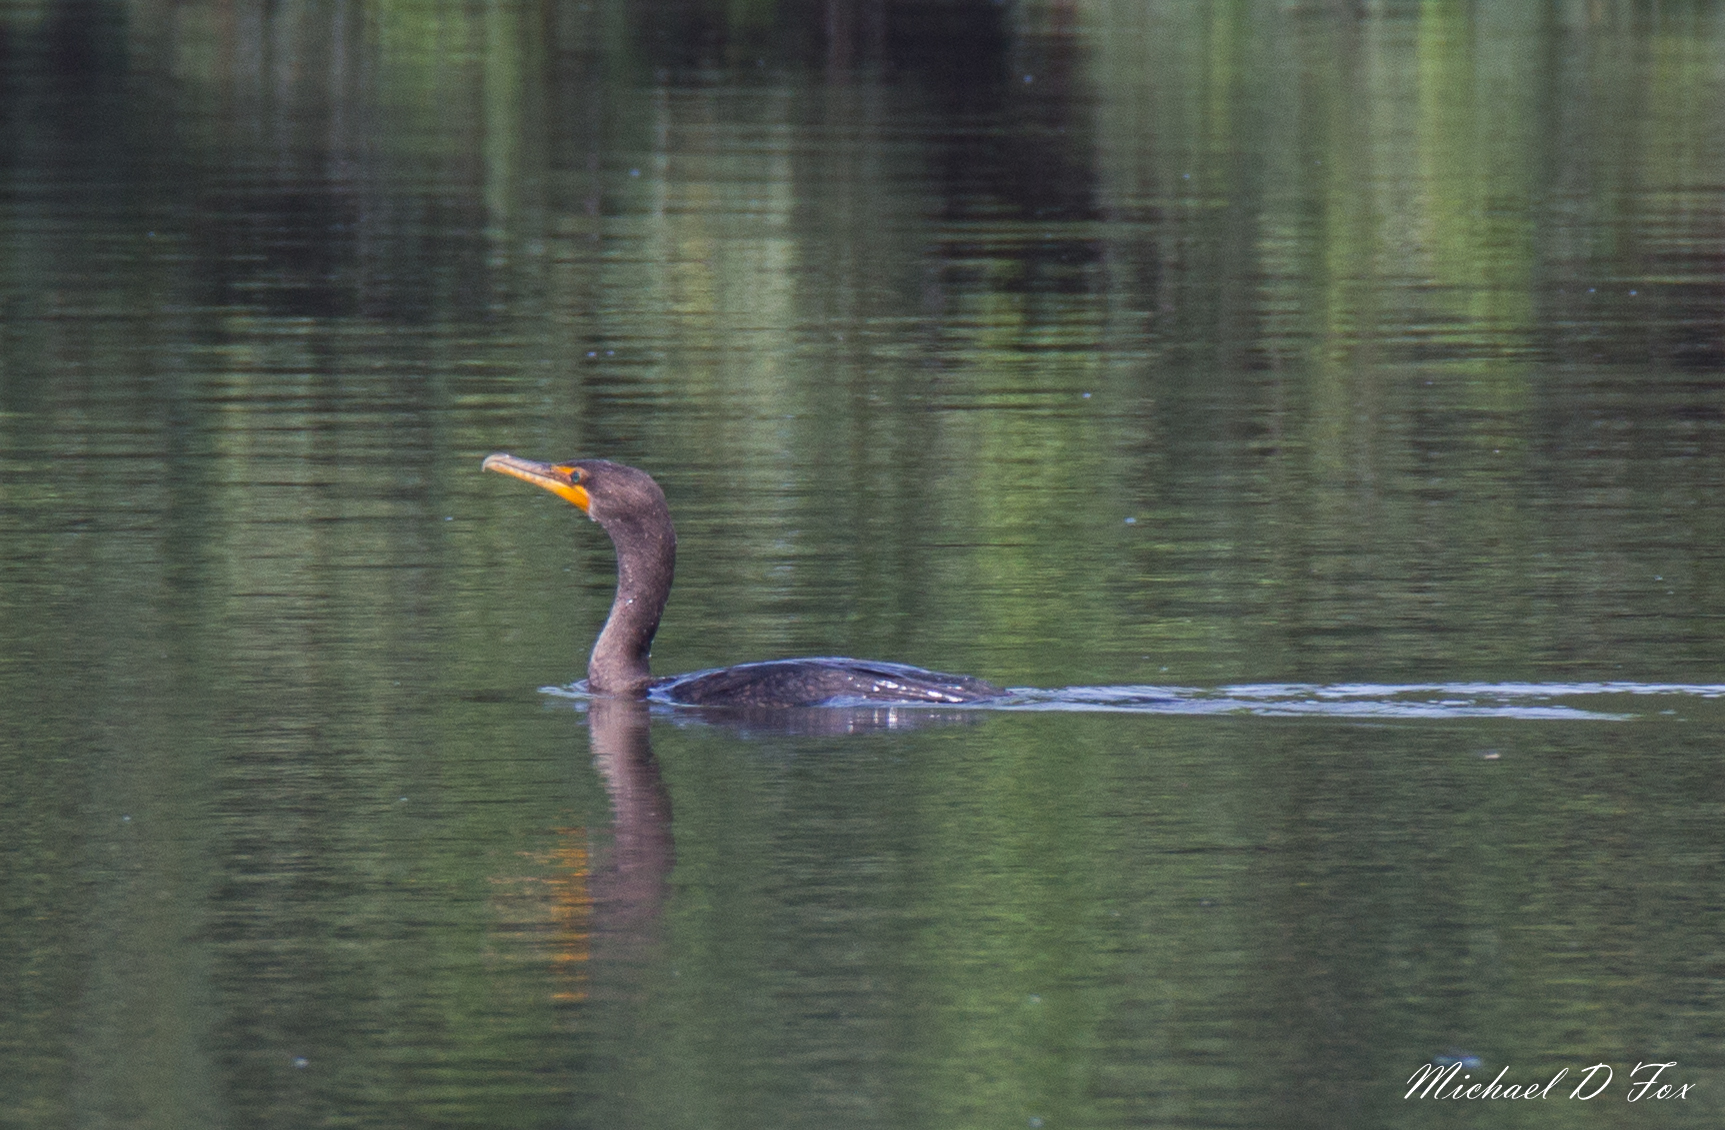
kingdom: Animalia
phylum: Chordata
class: Aves
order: Suliformes
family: Phalacrocoracidae
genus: Phalacrocorax
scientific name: Phalacrocorax auritus
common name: Double-crested cormorant
